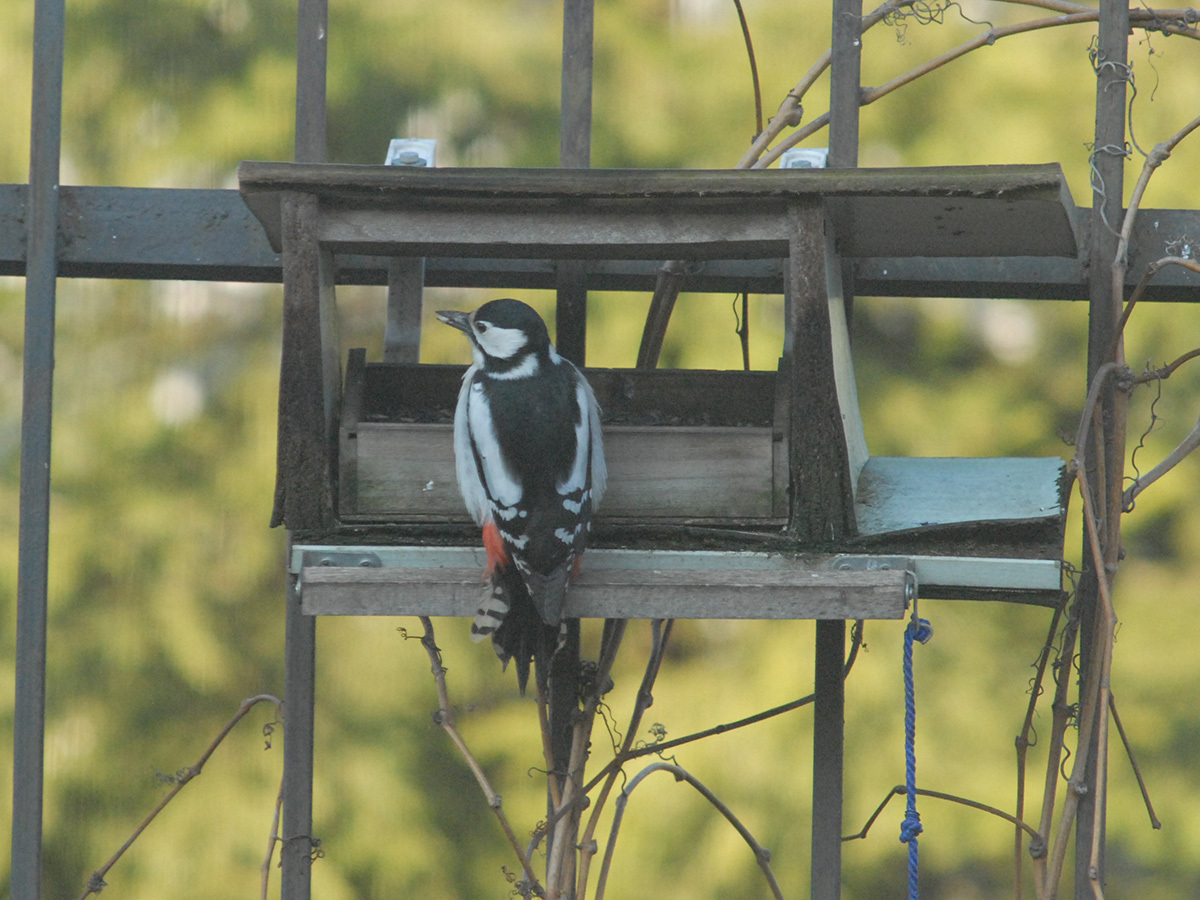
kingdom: Animalia
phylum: Chordata
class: Aves
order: Piciformes
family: Picidae
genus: Dendrocopos
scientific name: Dendrocopos major
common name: Great spotted woodpecker
